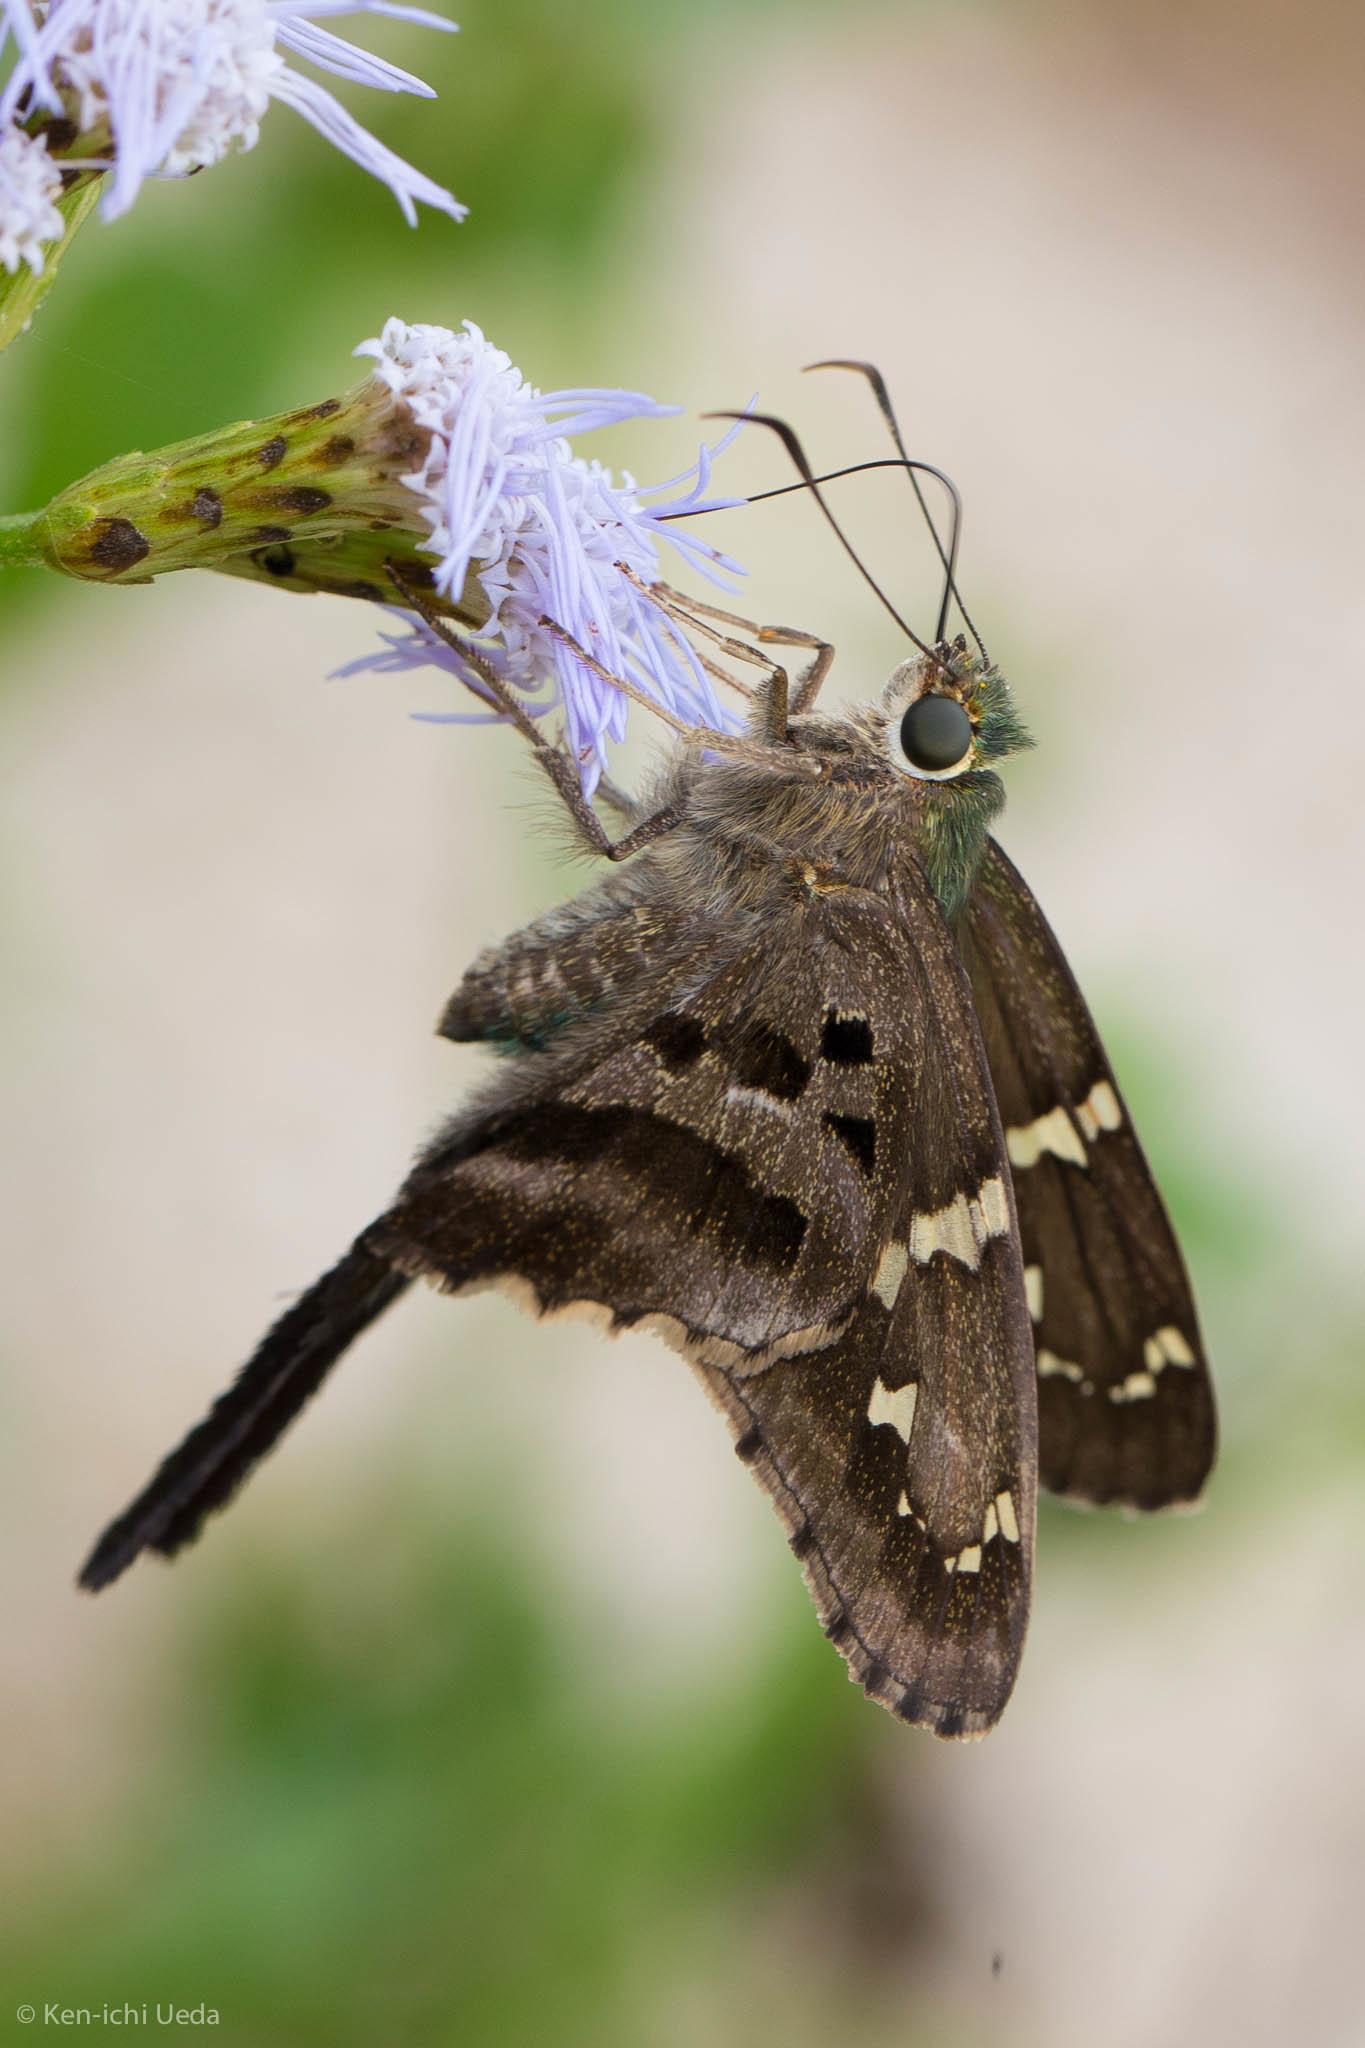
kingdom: Animalia
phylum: Arthropoda
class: Insecta
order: Lepidoptera
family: Hesperiidae
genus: Urbanus
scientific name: Urbanus proteus
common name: Long-tailed skipper
